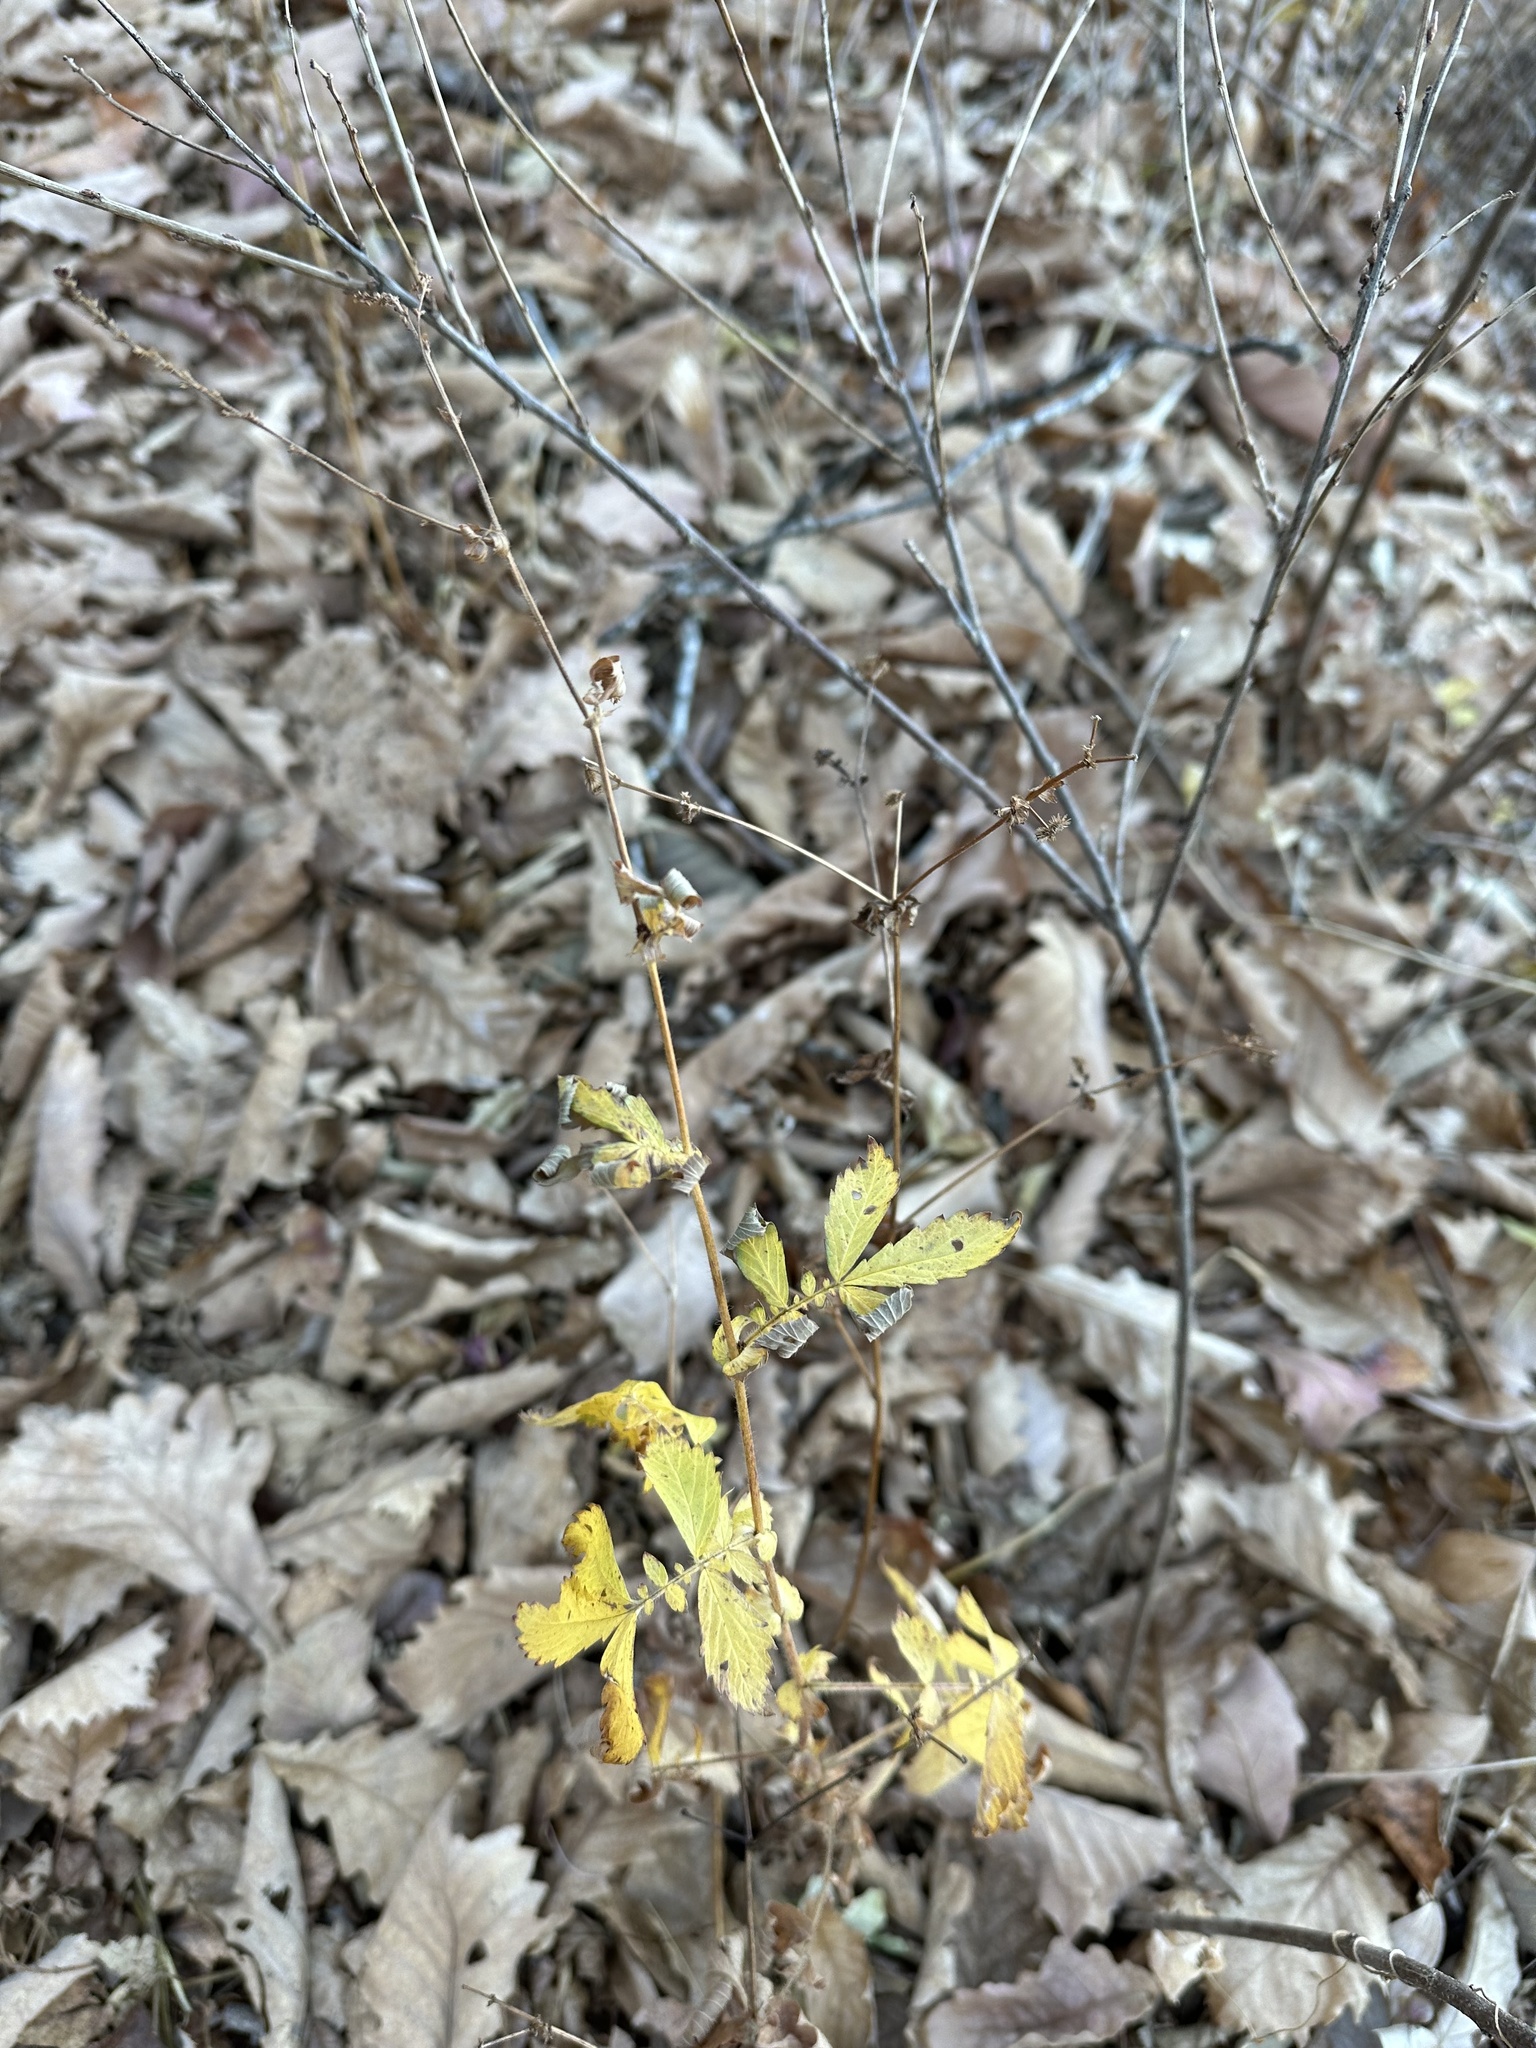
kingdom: Plantae
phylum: Tracheophyta
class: Magnoliopsida
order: Rosales
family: Rosaceae
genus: Agrimonia
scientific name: Agrimonia pilosa
